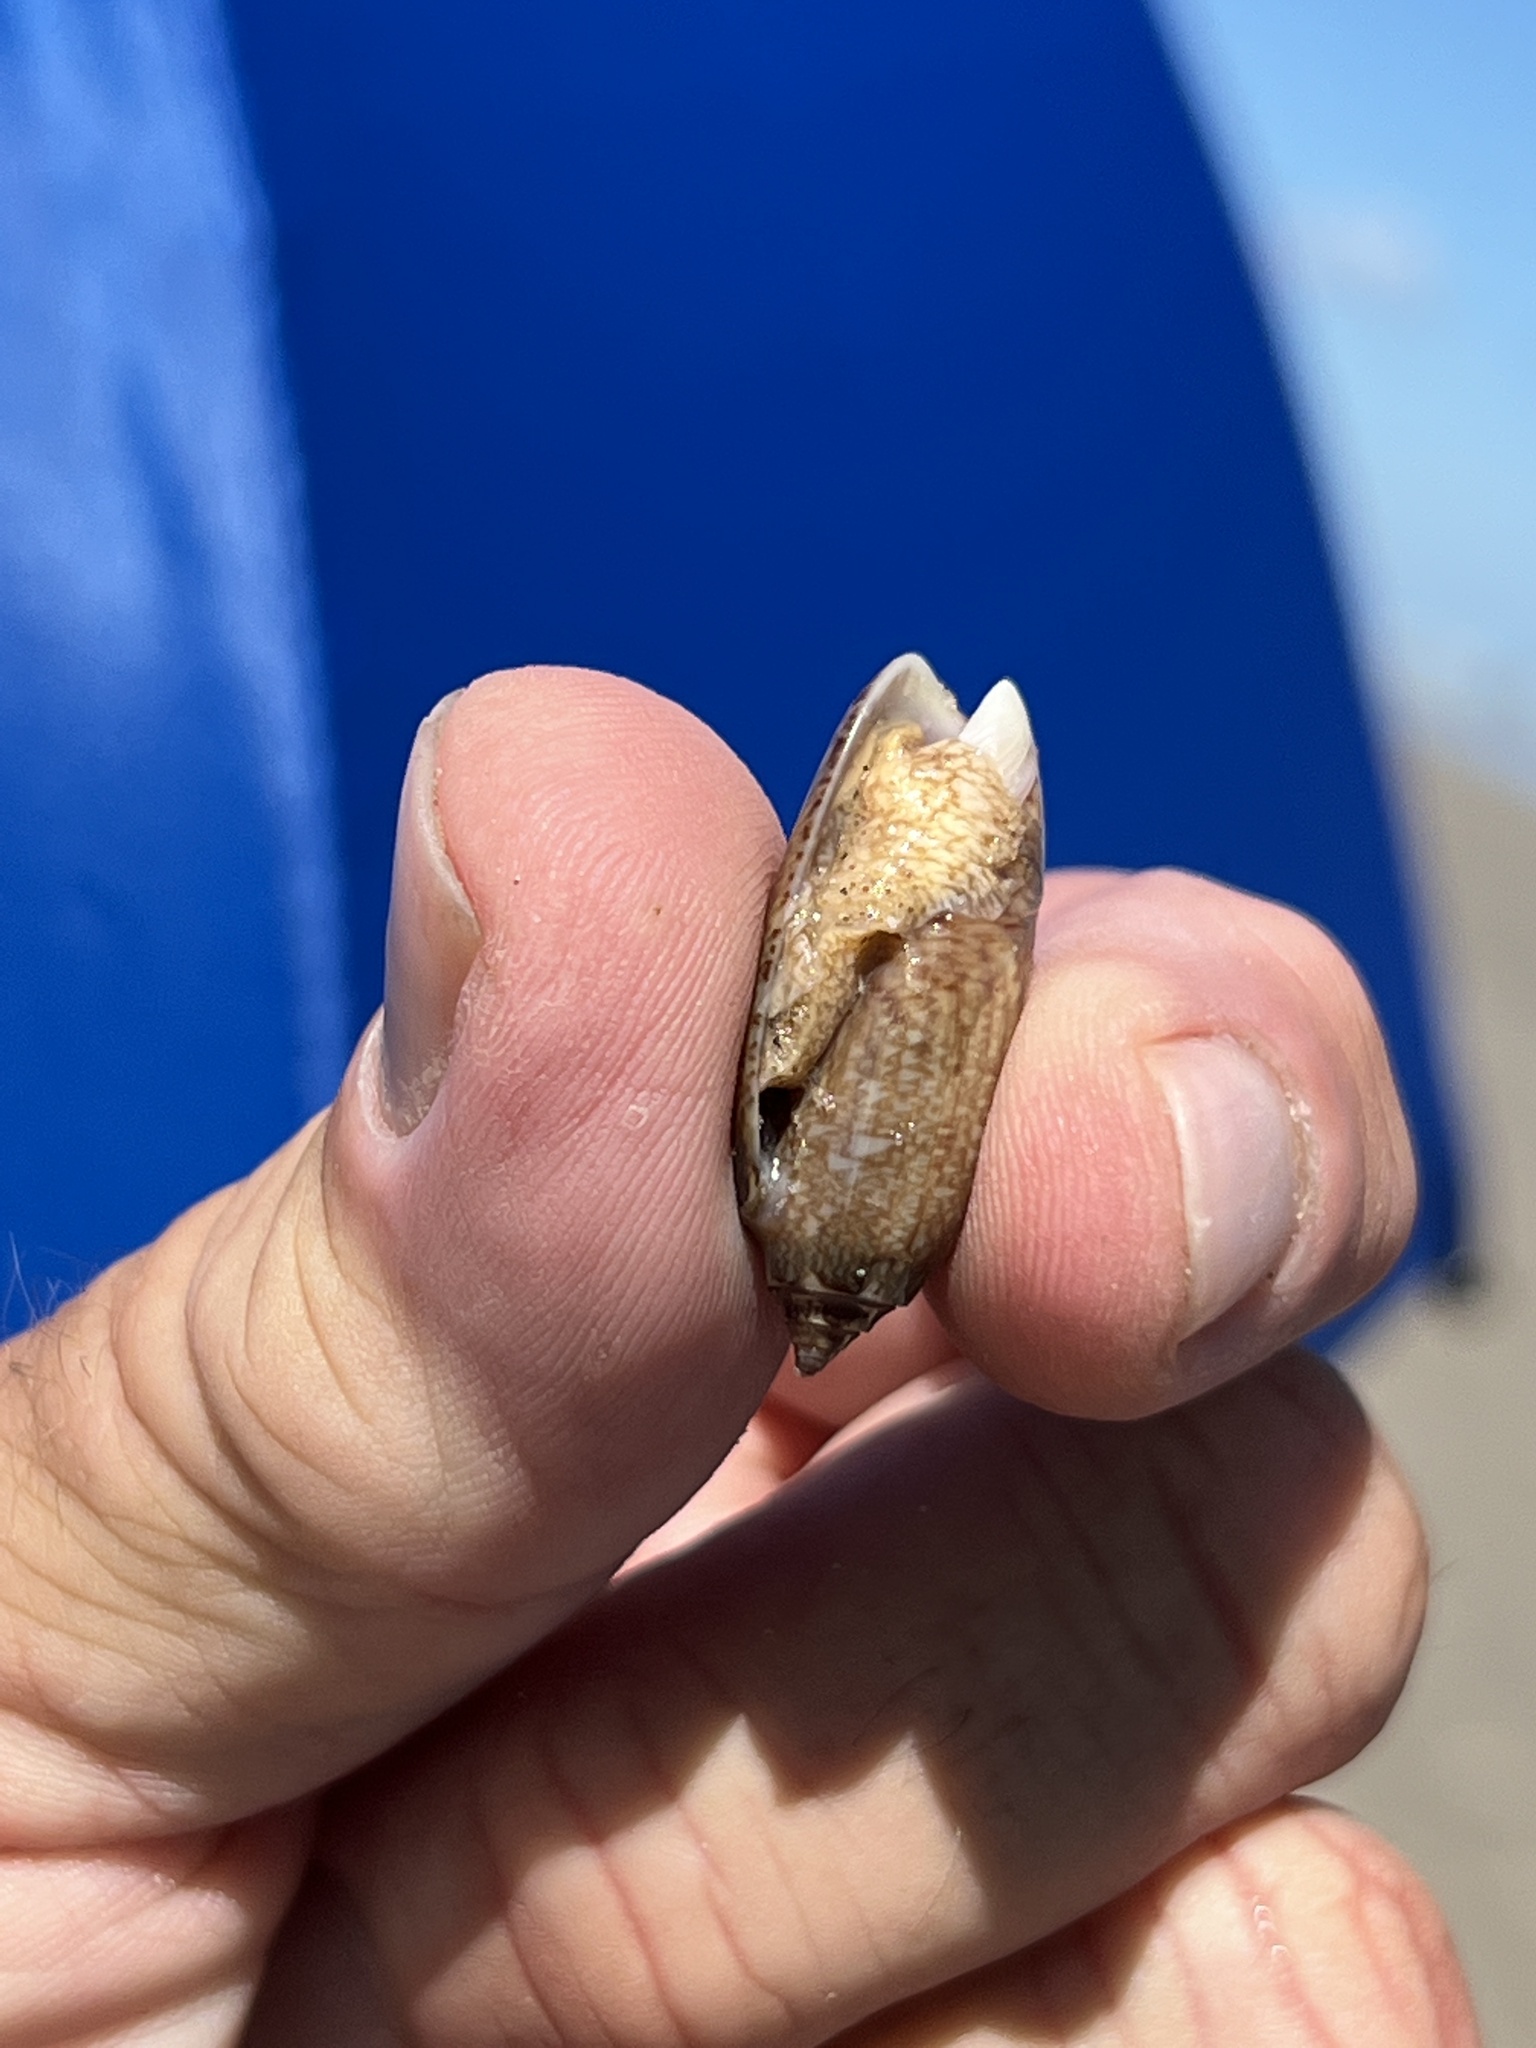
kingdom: Animalia
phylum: Mollusca
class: Gastropoda
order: Neogastropoda
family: Olividae
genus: Oliva
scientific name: Oliva sayana
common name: Lettered olive
